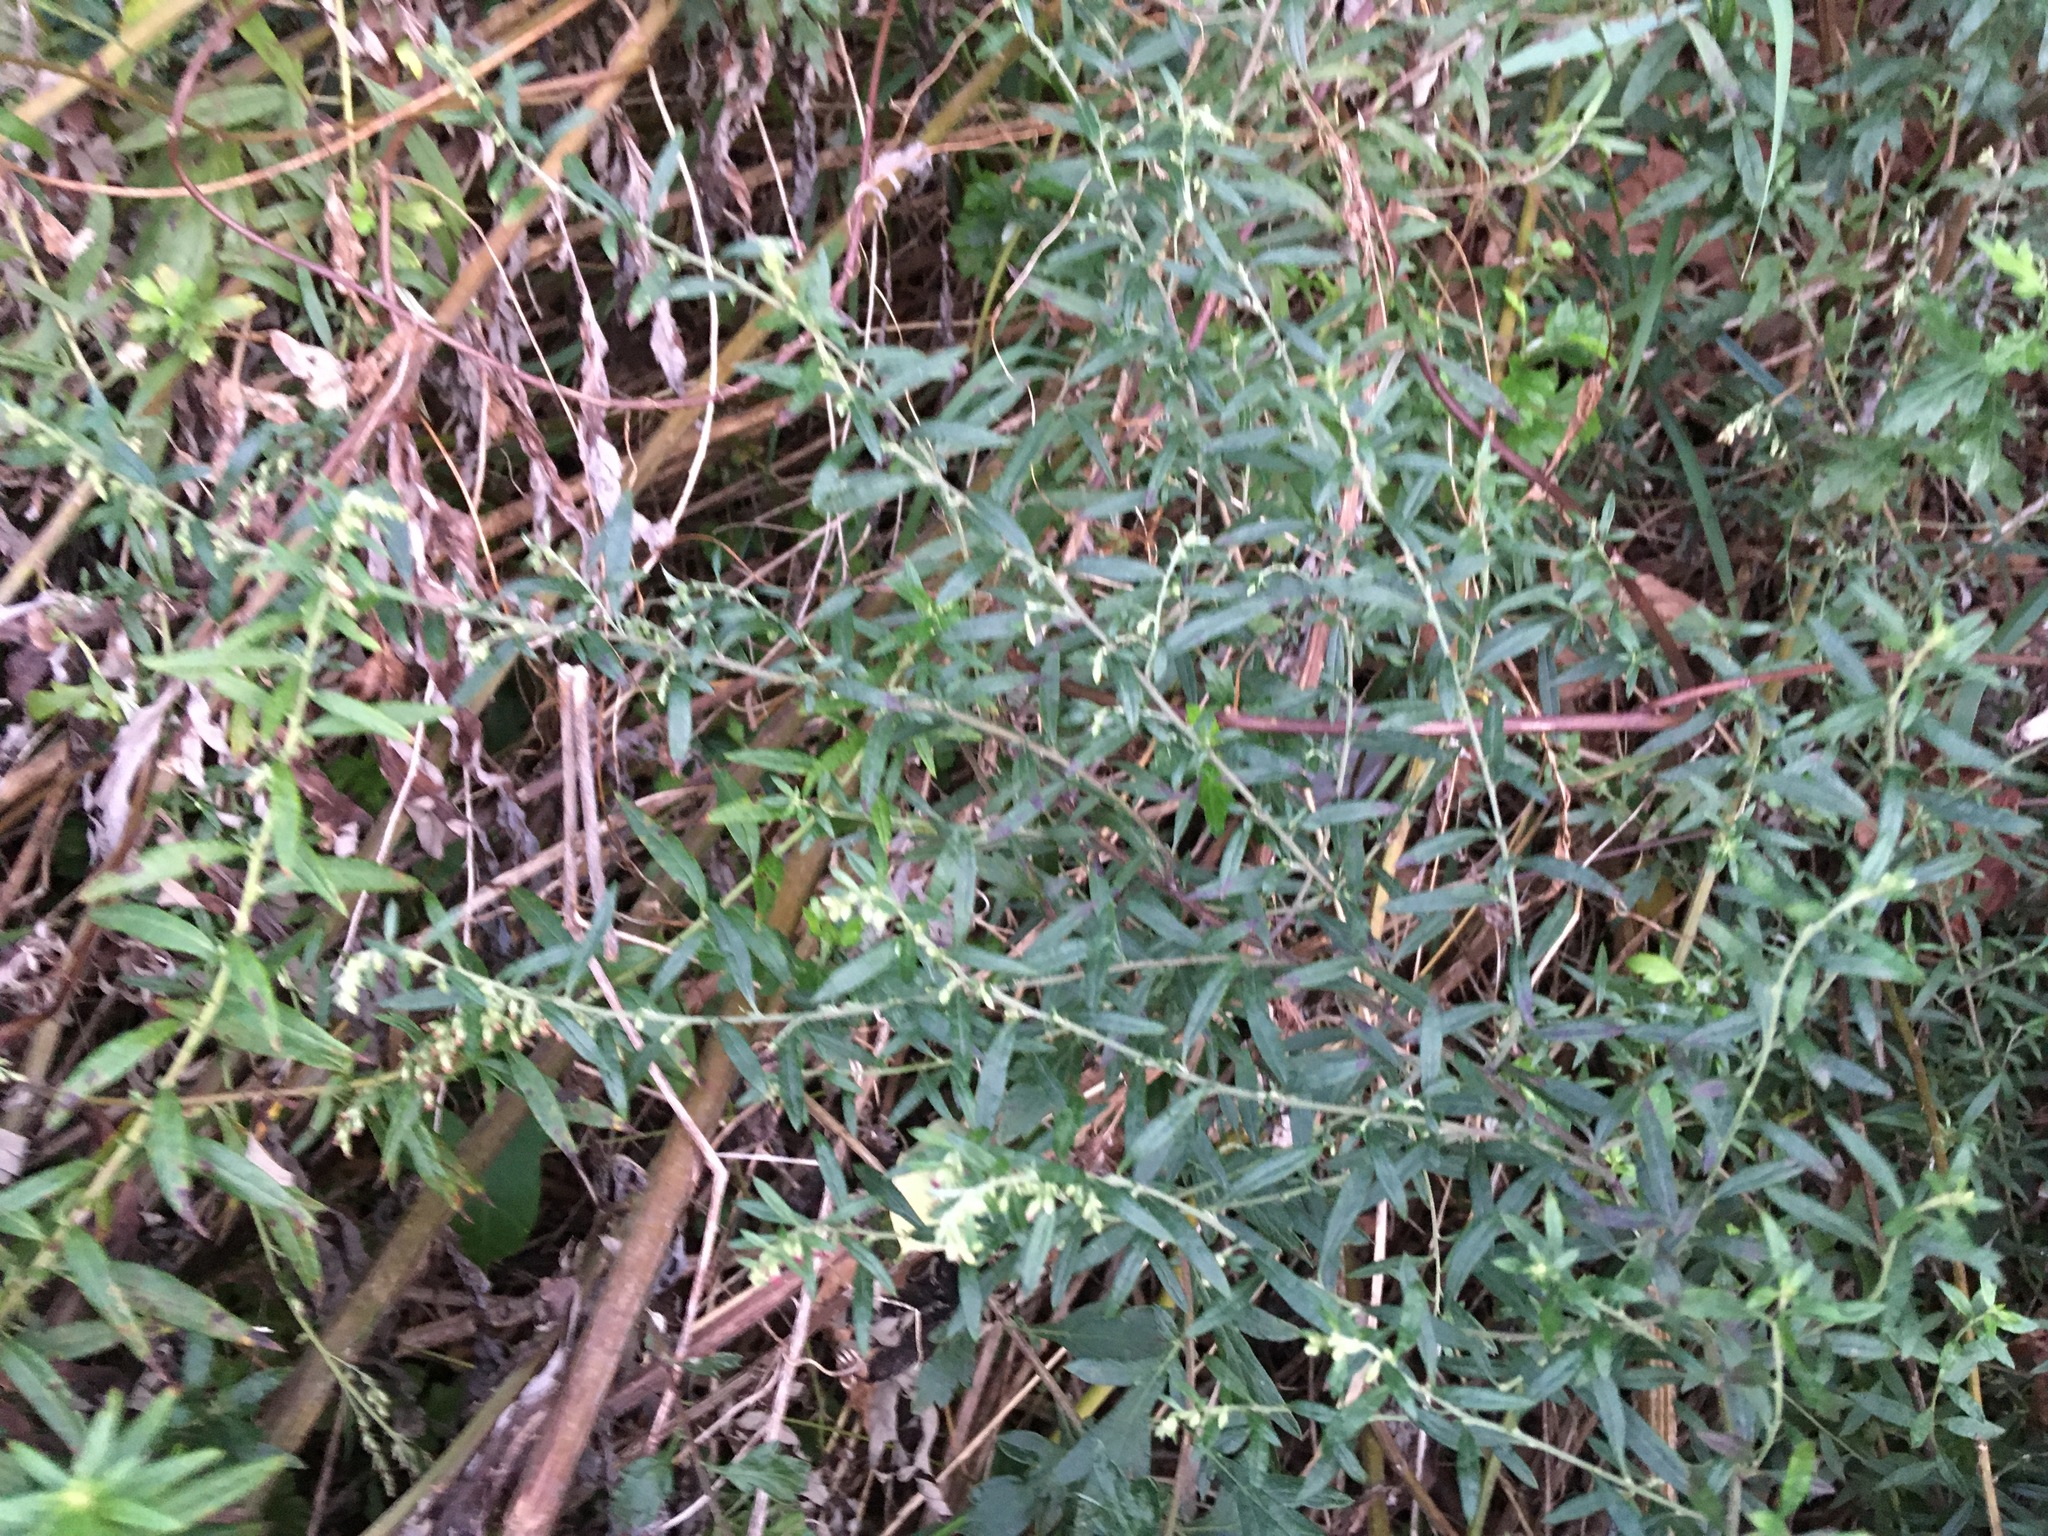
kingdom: Plantae
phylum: Tracheophyta
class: Magnoliopsida
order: Asterales
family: Asteraceae
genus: Artemisia
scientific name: Artemisia vulgaris
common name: Mugwort
